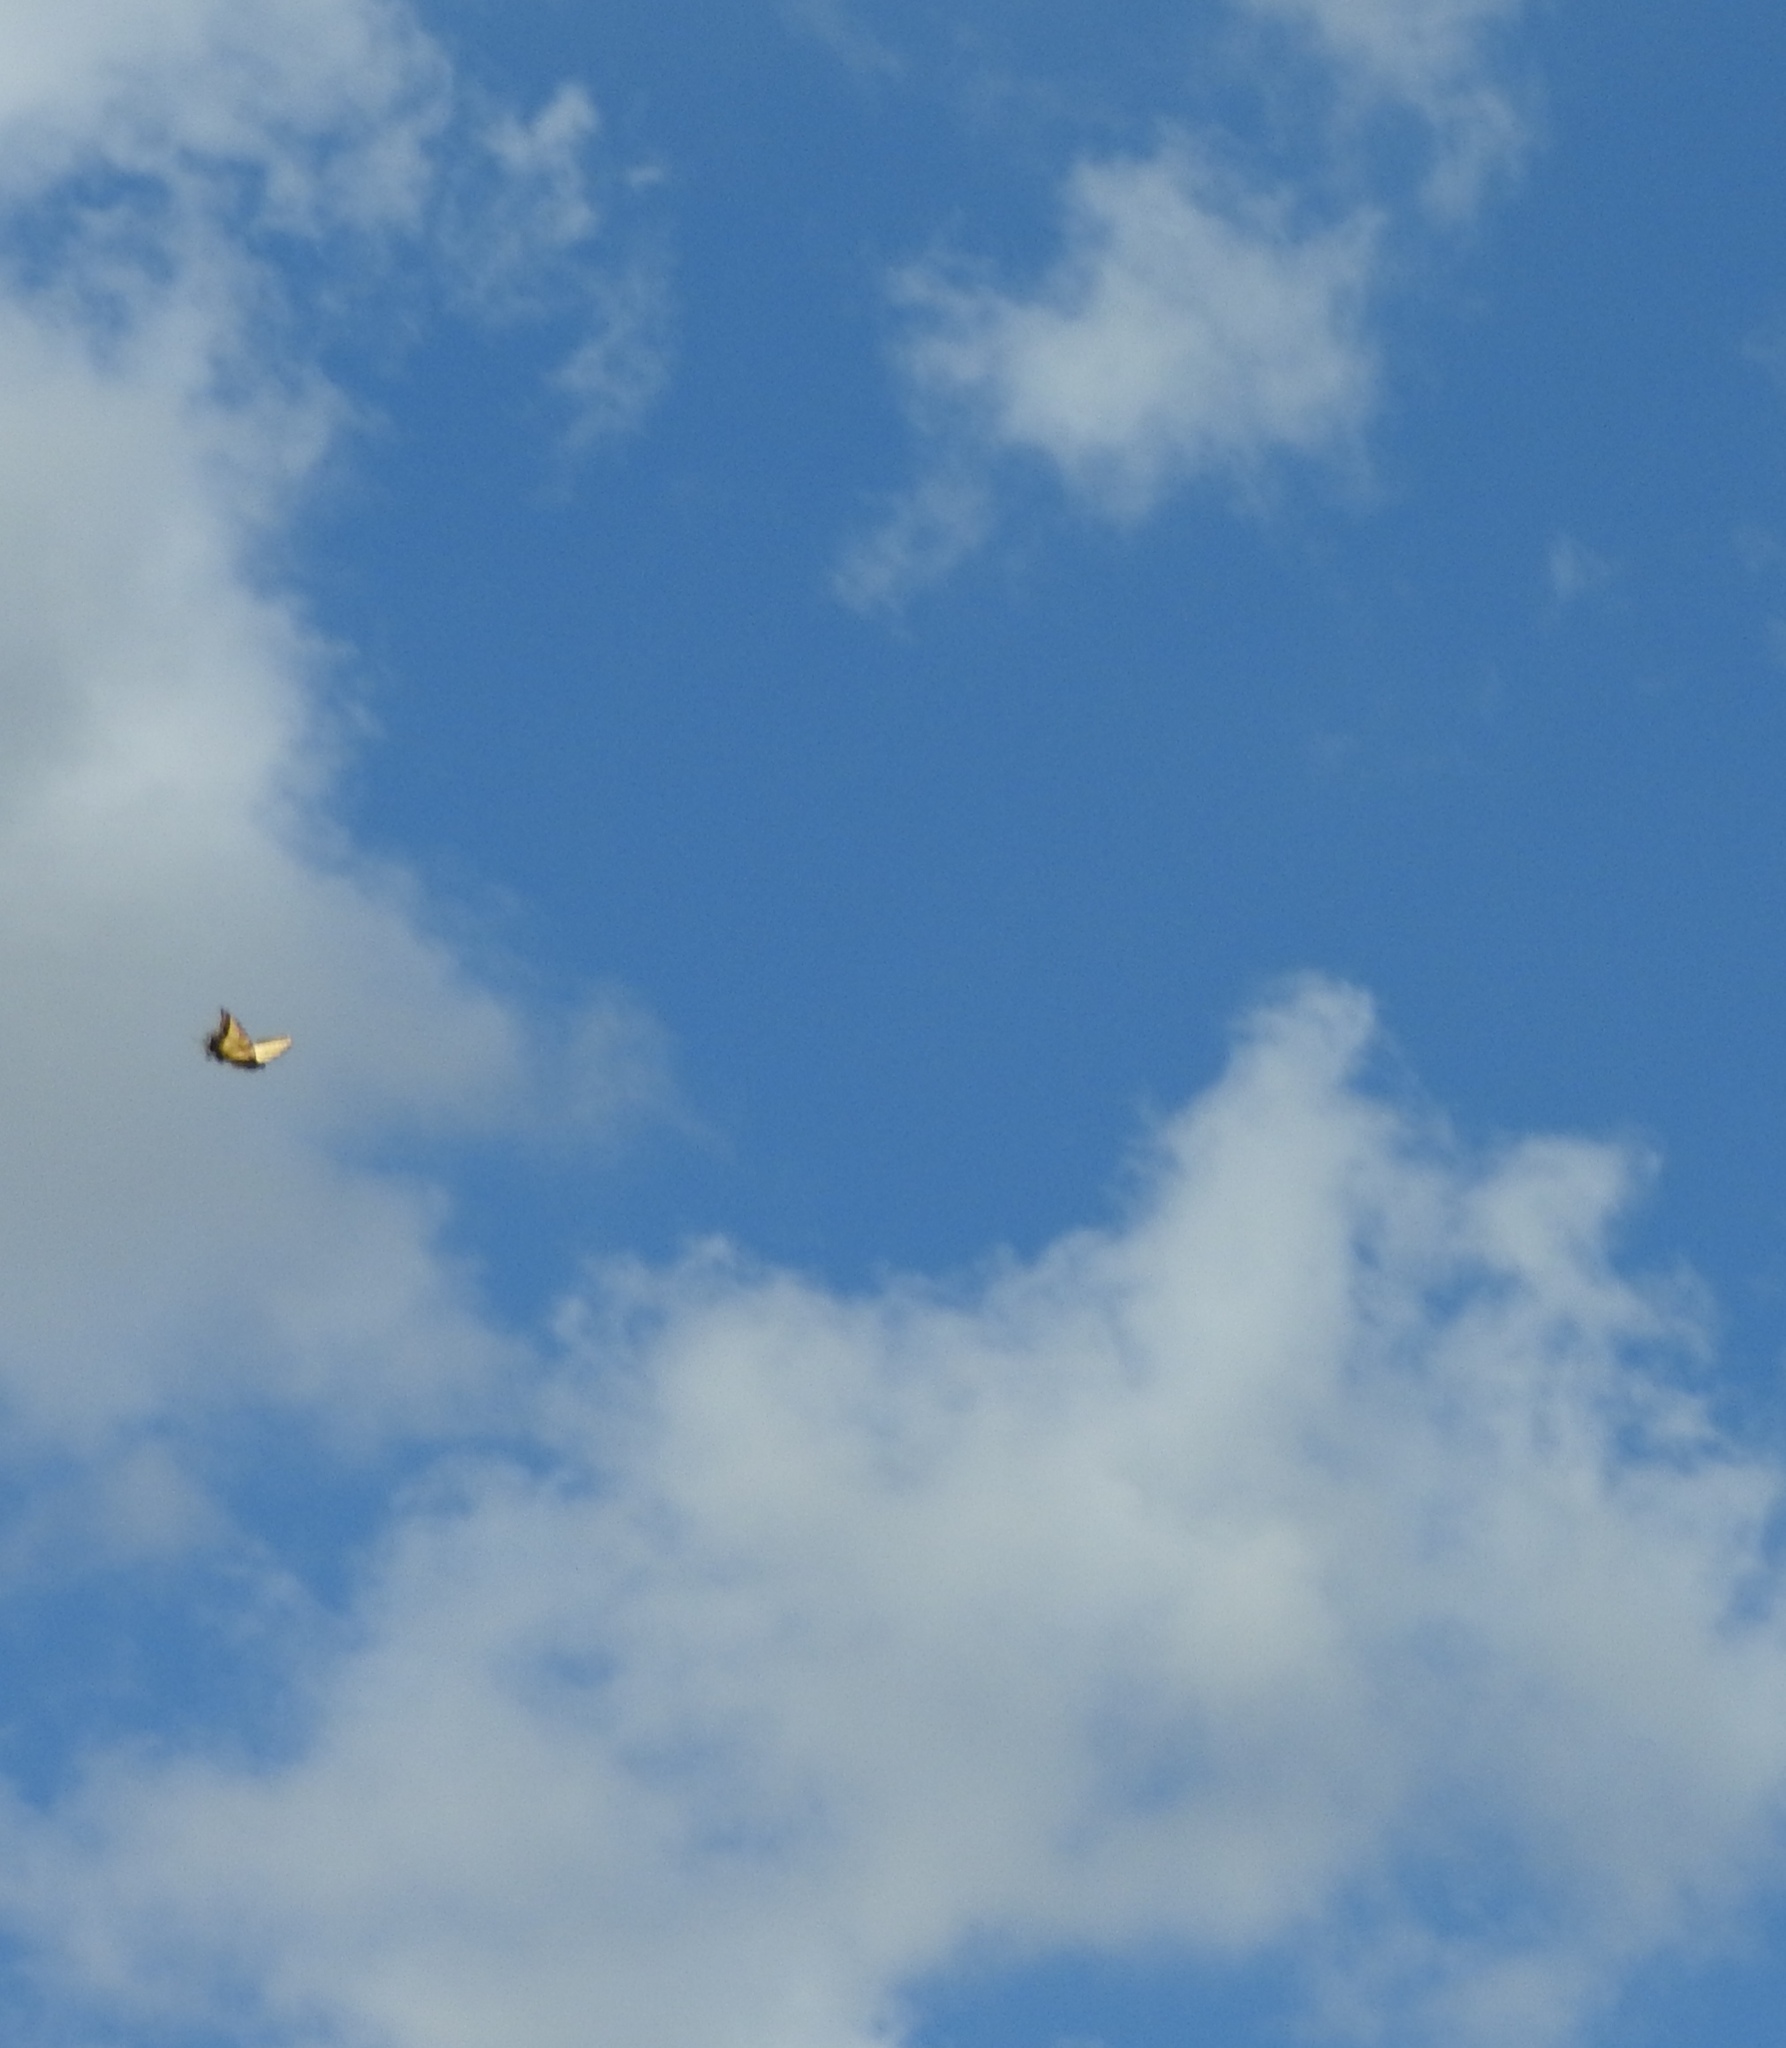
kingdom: Animalia
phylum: Arthropoda
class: Insecta
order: Lepidoptera
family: Papilionidae
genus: Papilio
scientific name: Papilio multicaudata
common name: Two-tailed tiger swallowtail
